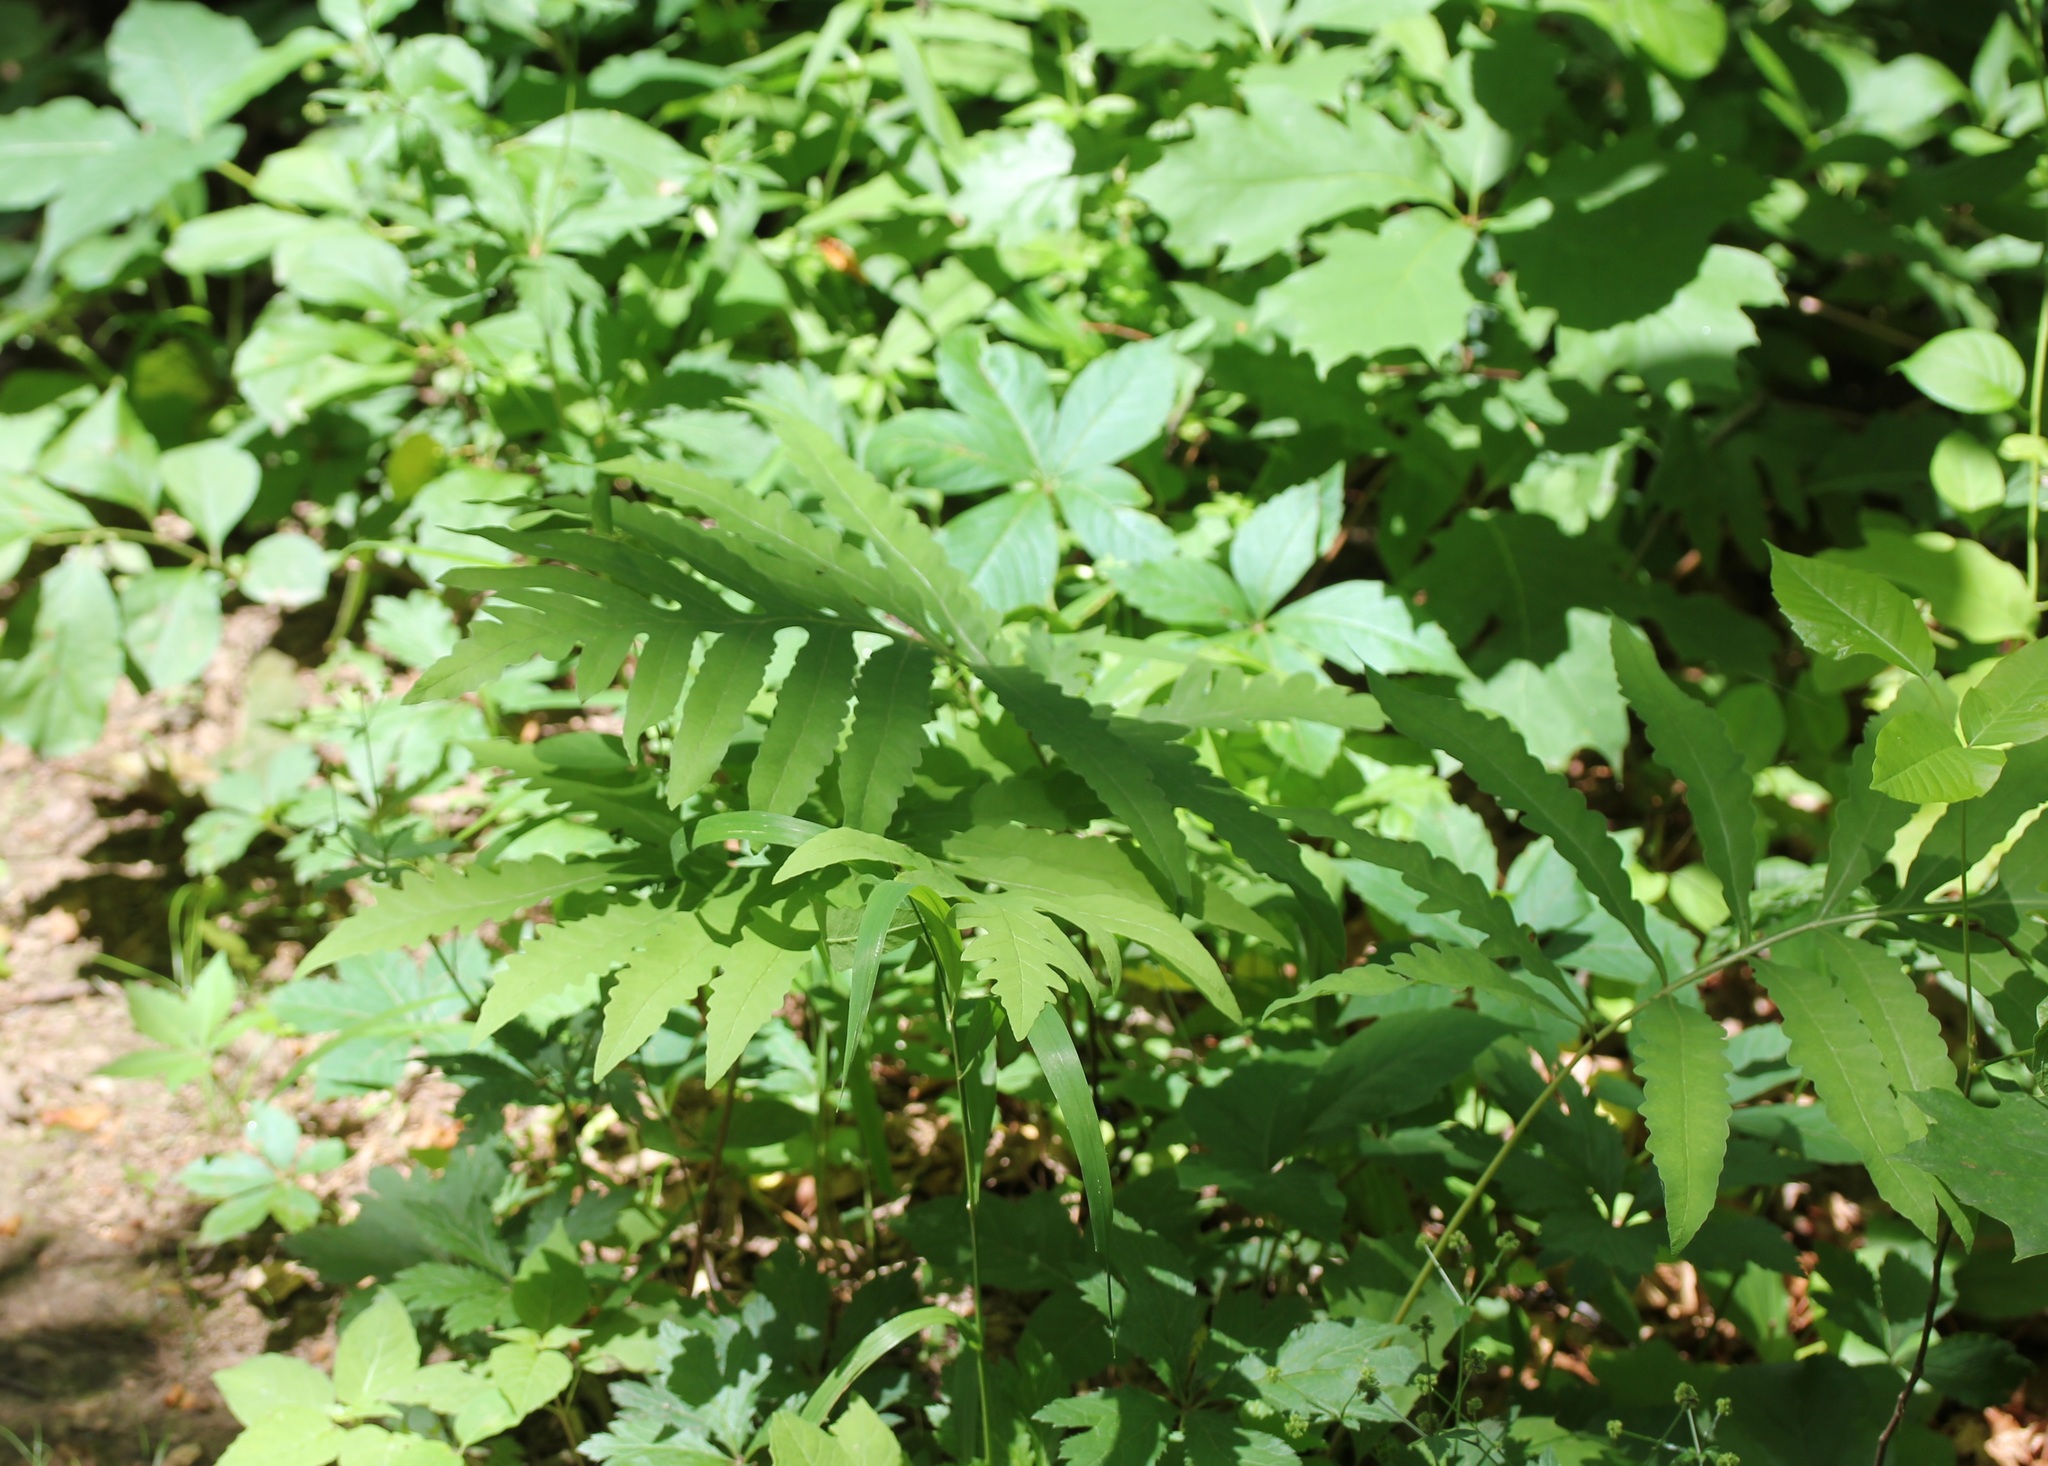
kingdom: Plantae
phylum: Tracheophyta
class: Polypodiopsida
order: Polypodiales
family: Onocleaceae
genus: Onoclea
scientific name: Onoclea sensibilis
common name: Sensitive fern
